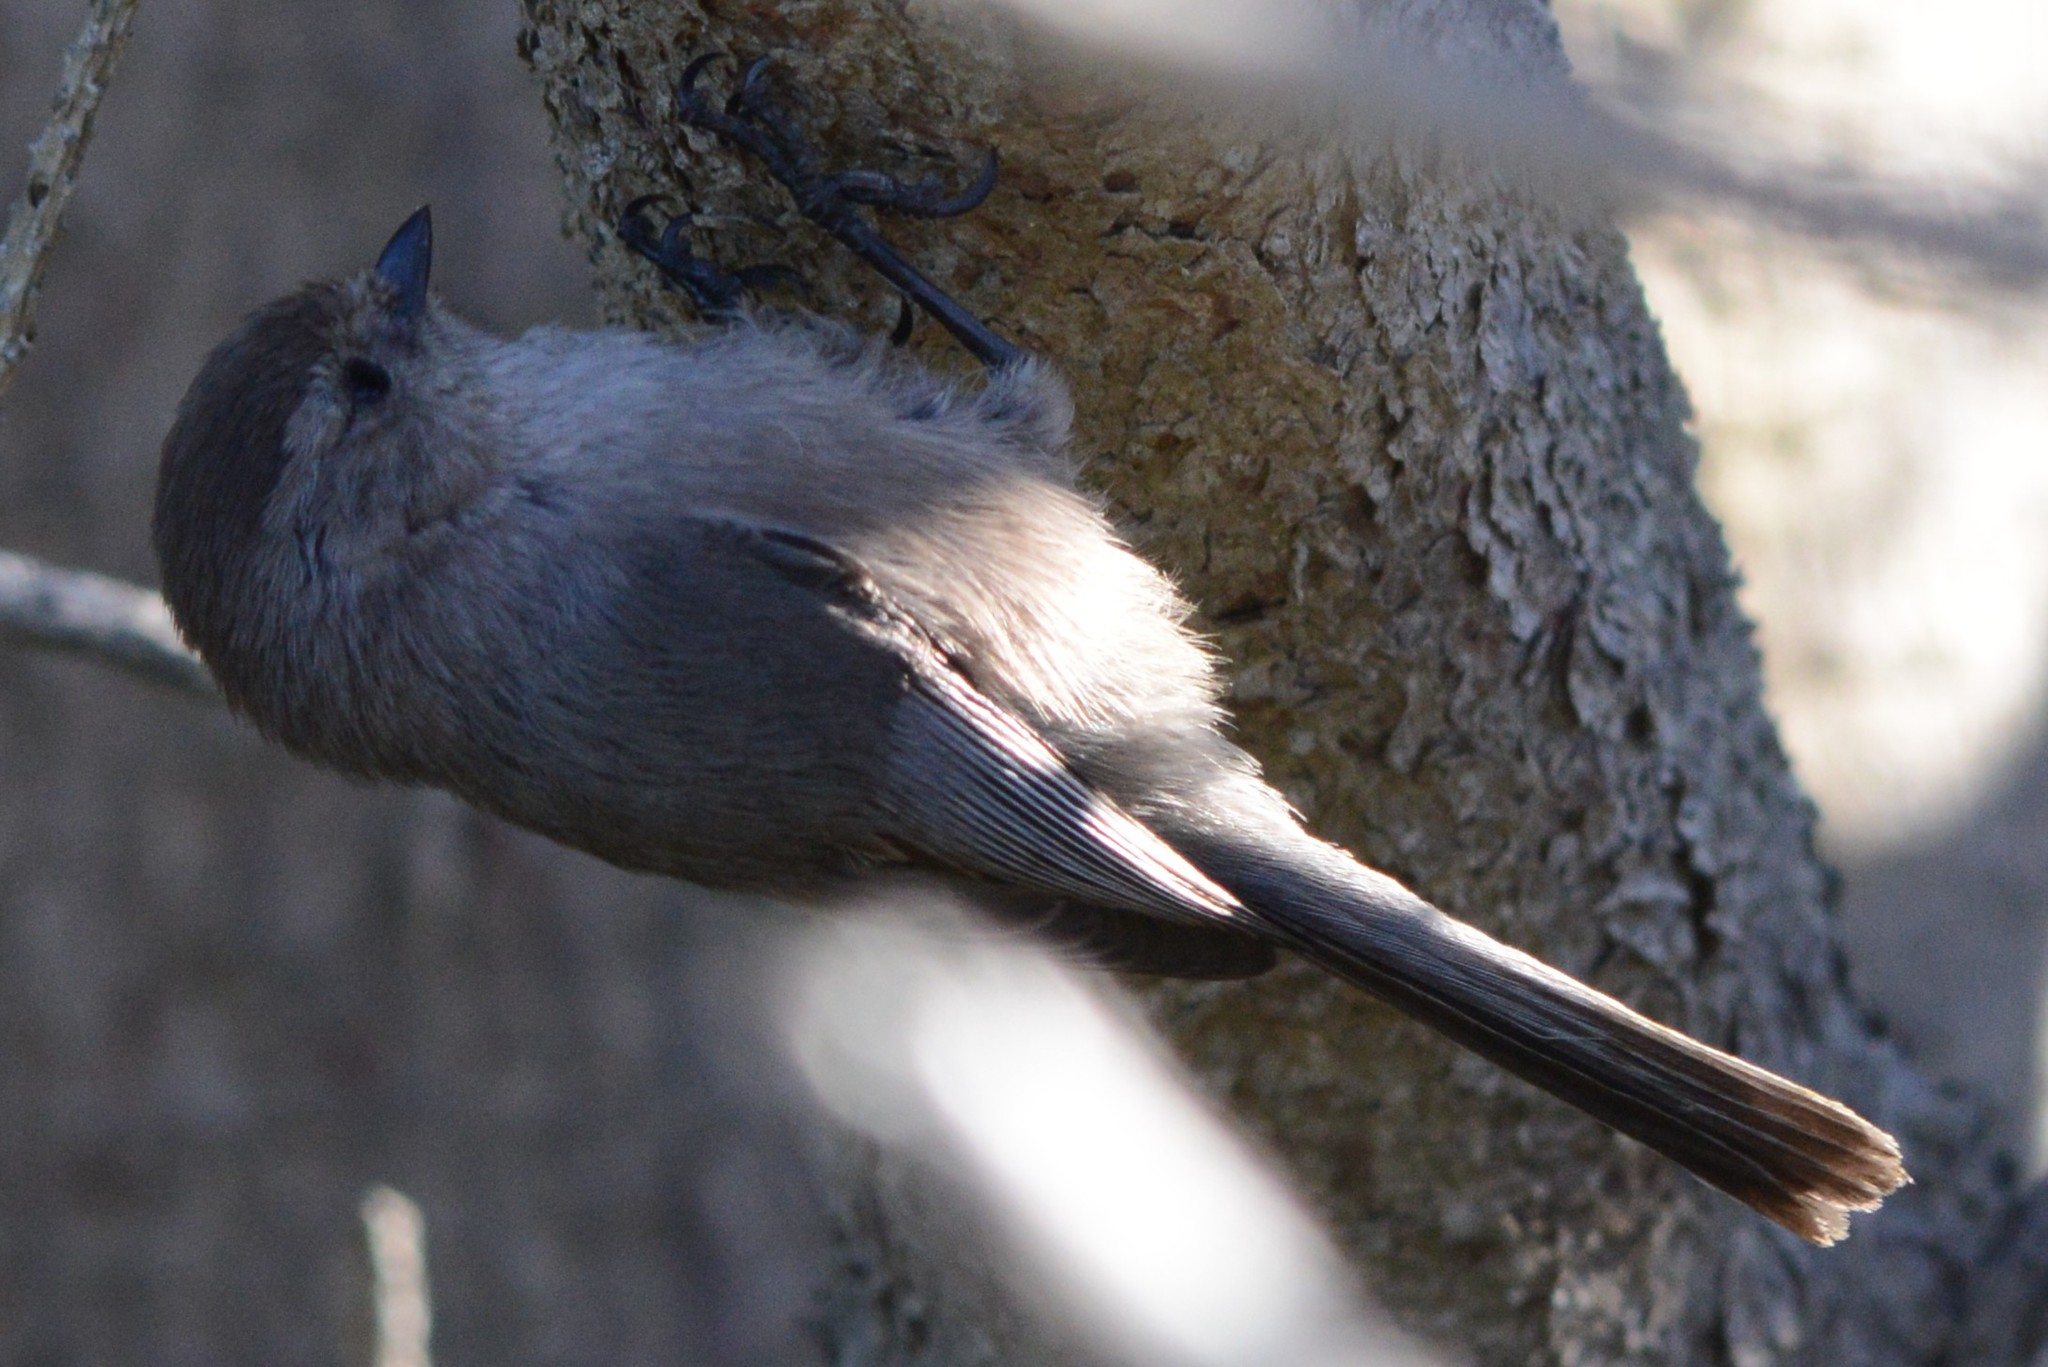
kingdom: Animalia
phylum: Chordata
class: Aves
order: Passeriformes
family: Aegithalidae
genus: Psaltriparus
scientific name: Psaltriparus minimus
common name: American bushtit
